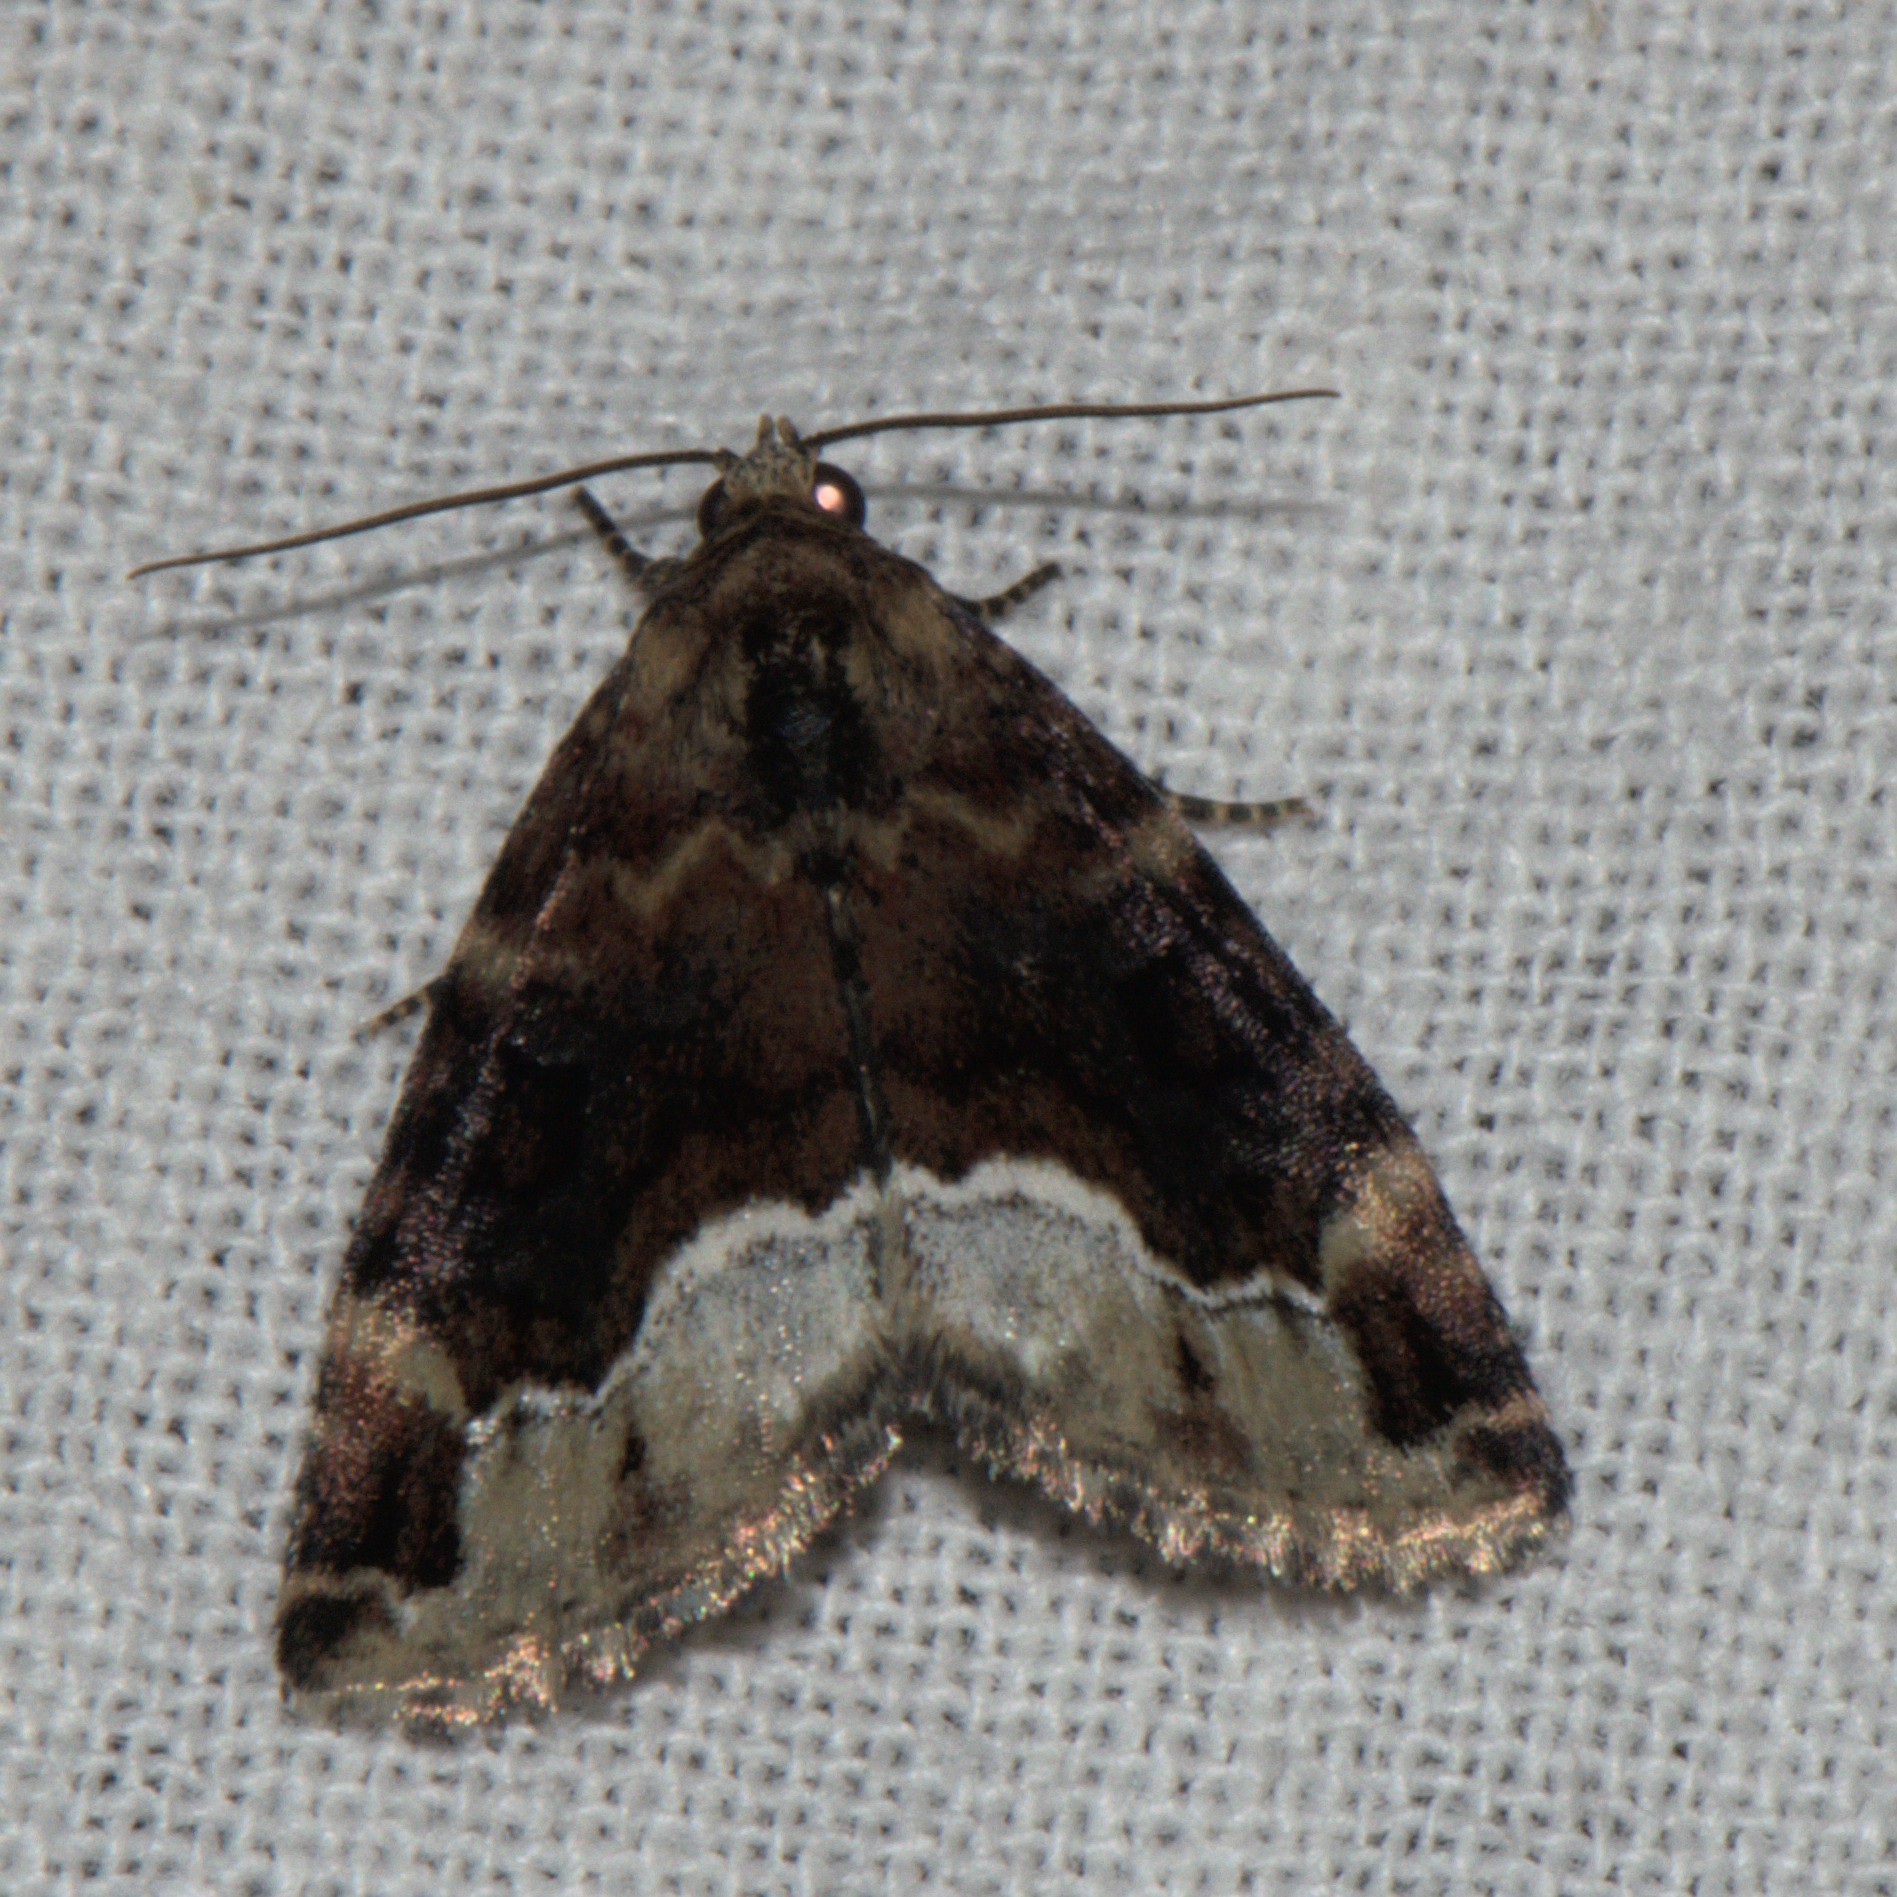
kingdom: Animalia
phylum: Arthropoda
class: Insecta
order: Lepidoptera
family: Erebidae
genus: Koyaga
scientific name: Koyaga
